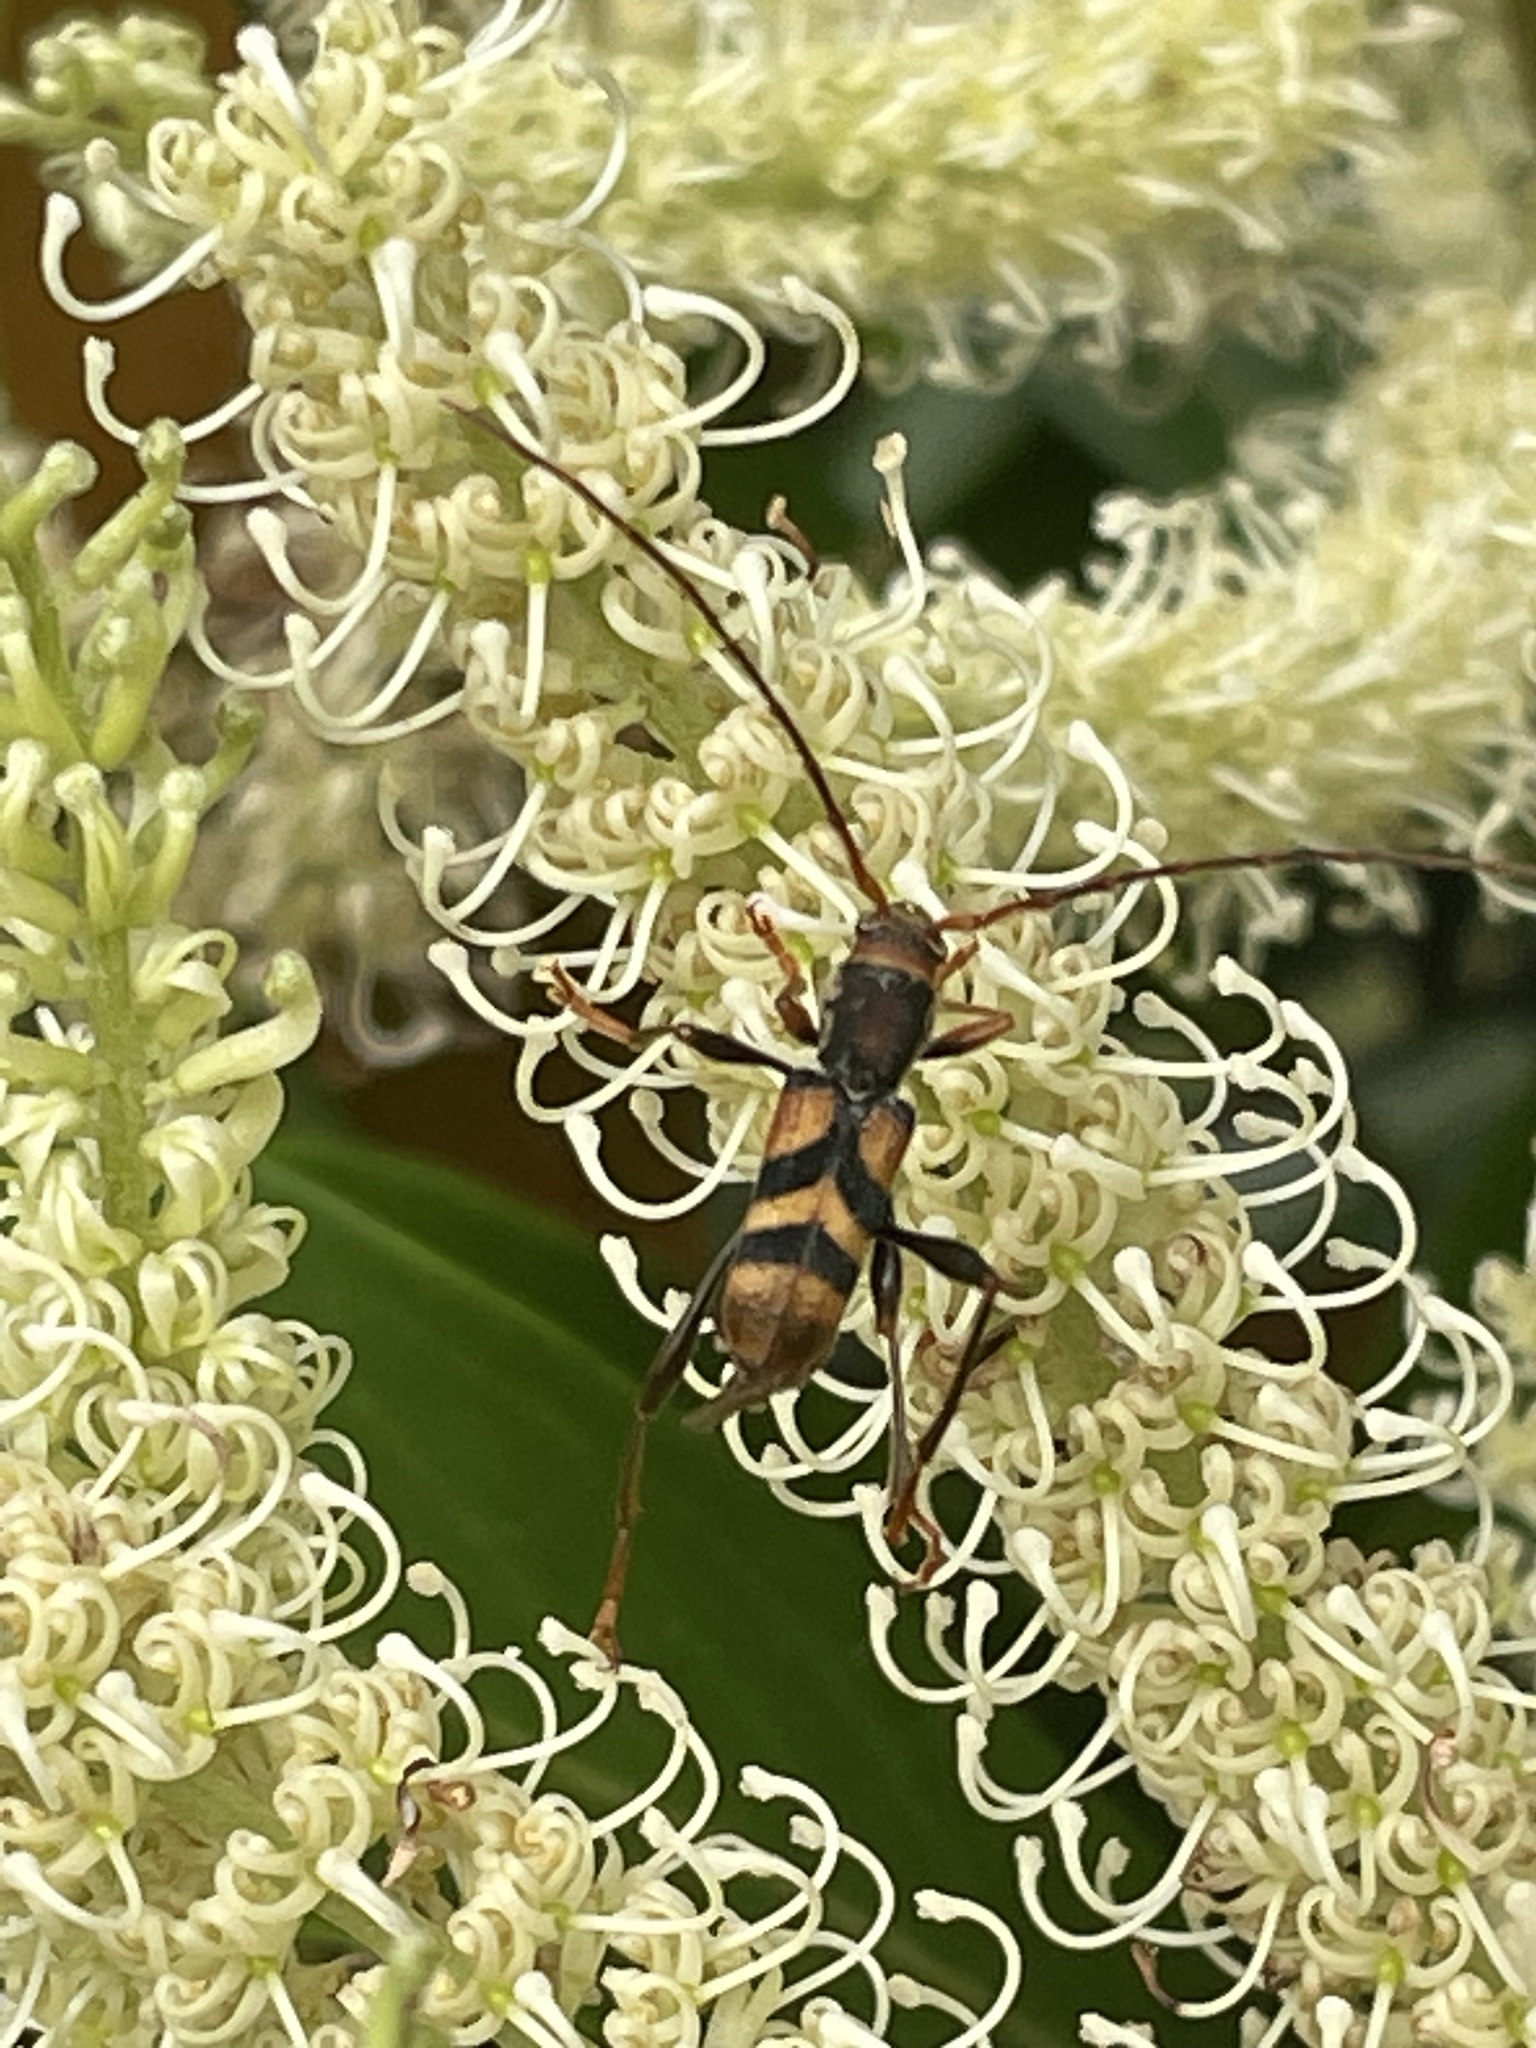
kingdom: Animalia
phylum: Arthropoda
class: Insecta
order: Coleoptera
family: Cerambycidae
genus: Aridaeus
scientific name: Aridaeus thoracicus
